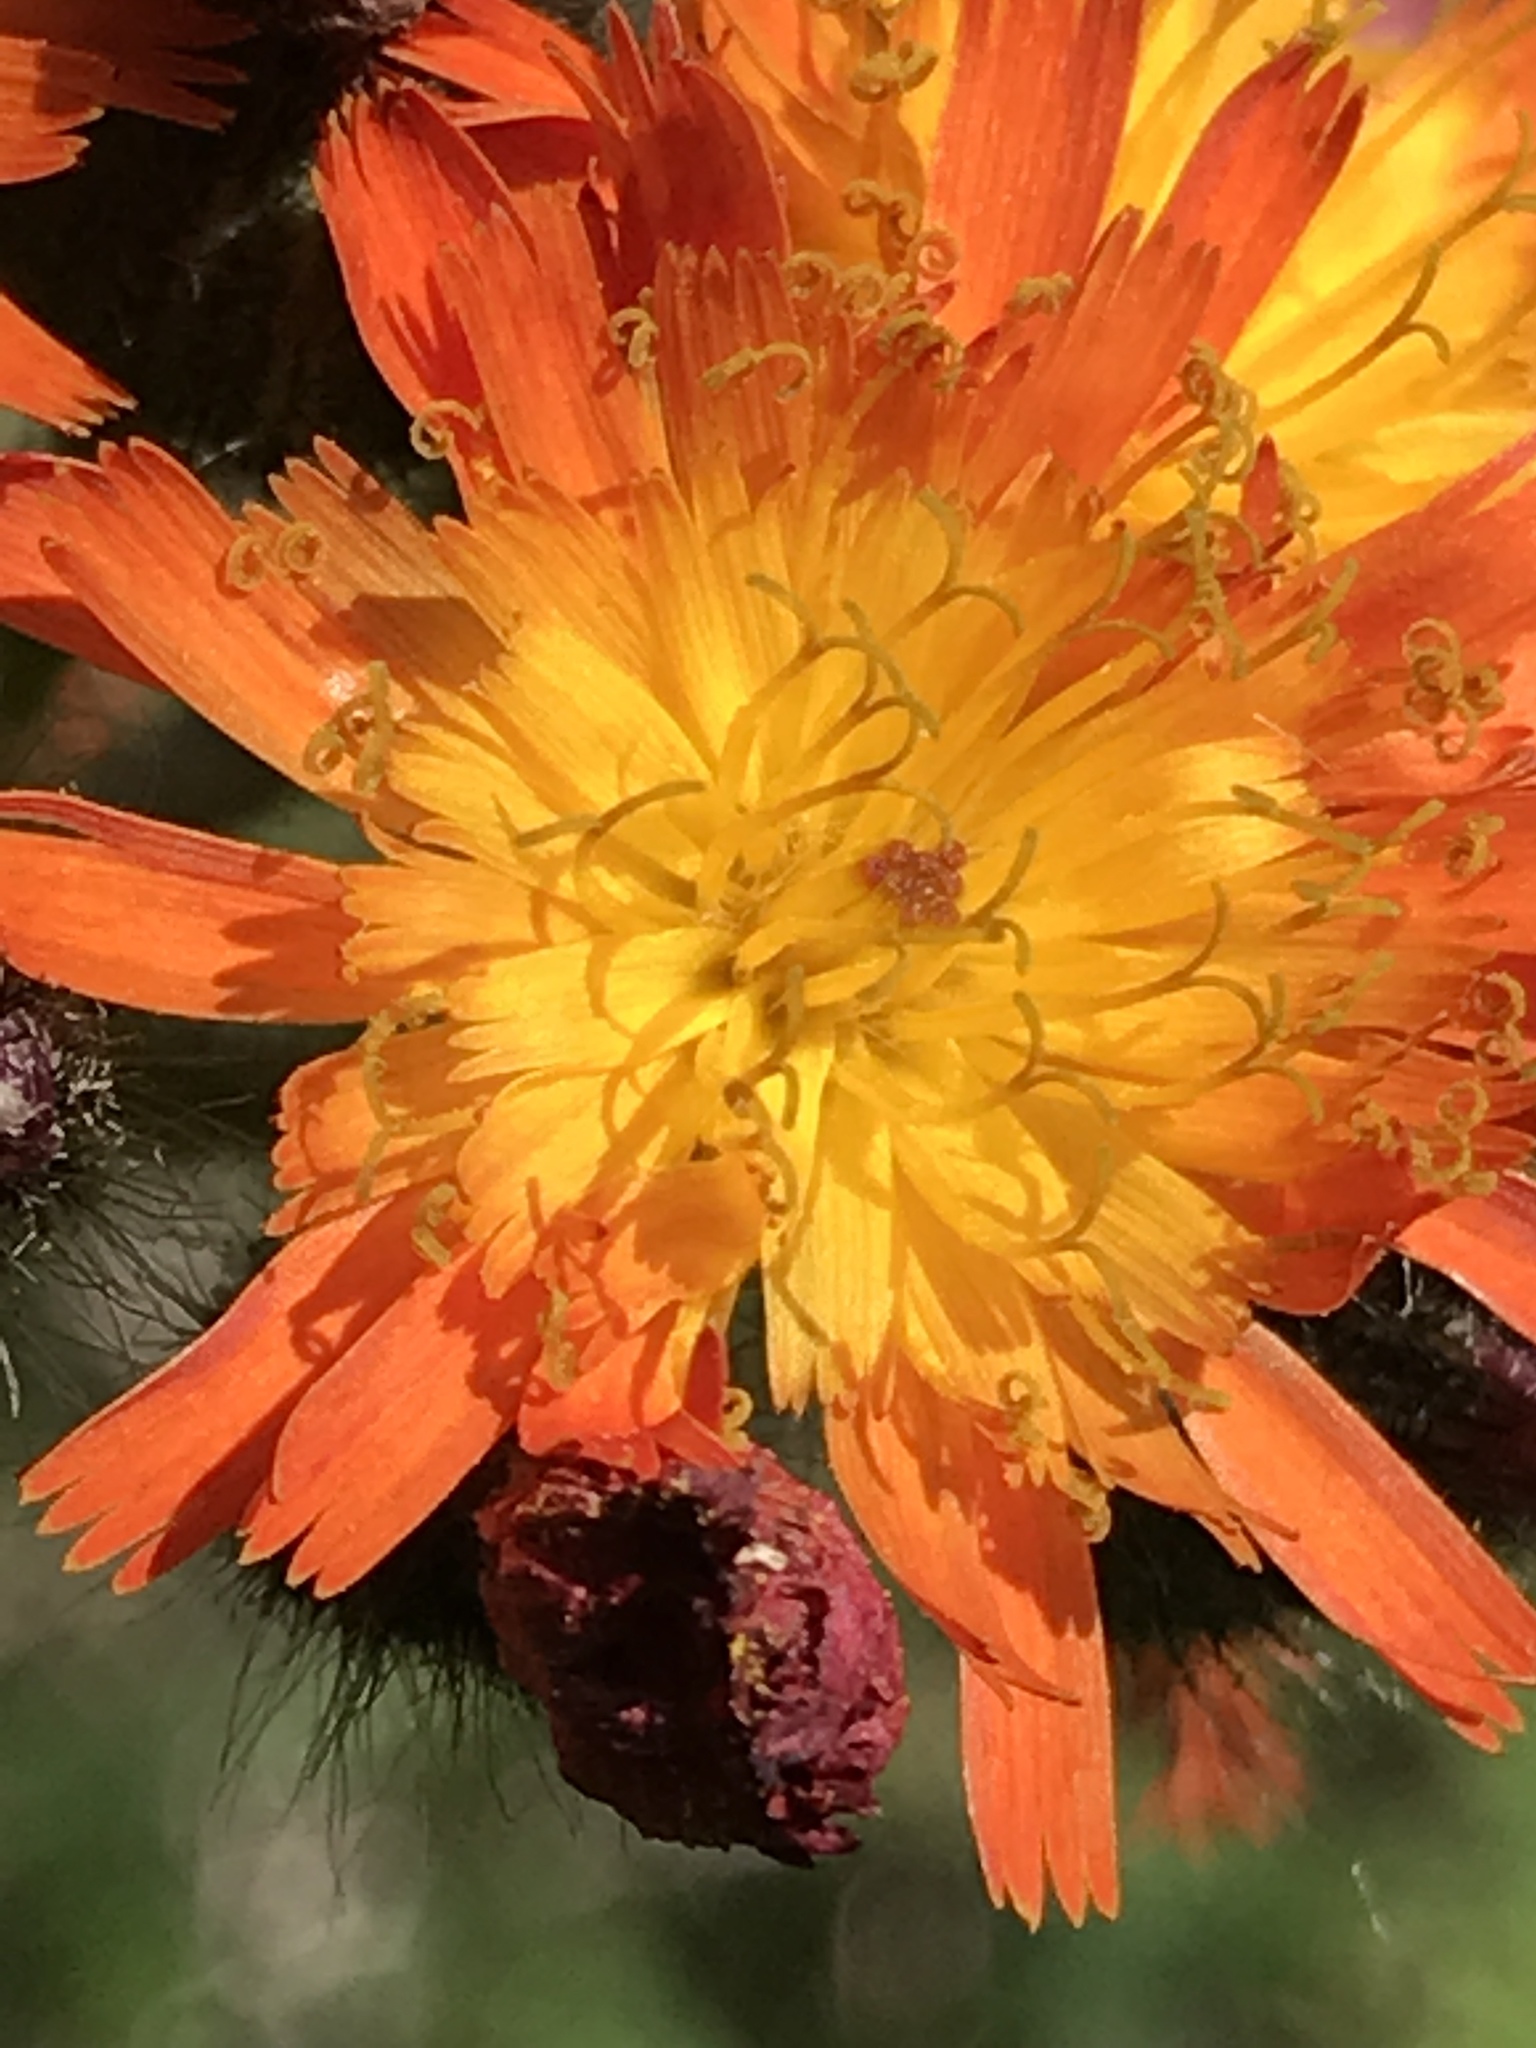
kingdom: Plantae
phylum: Tracheophyta
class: Magnoliopsida
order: Asterales
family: Asteraceae
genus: Pilosella
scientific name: Pilosella aurantiaca
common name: Fox-and-cubs
